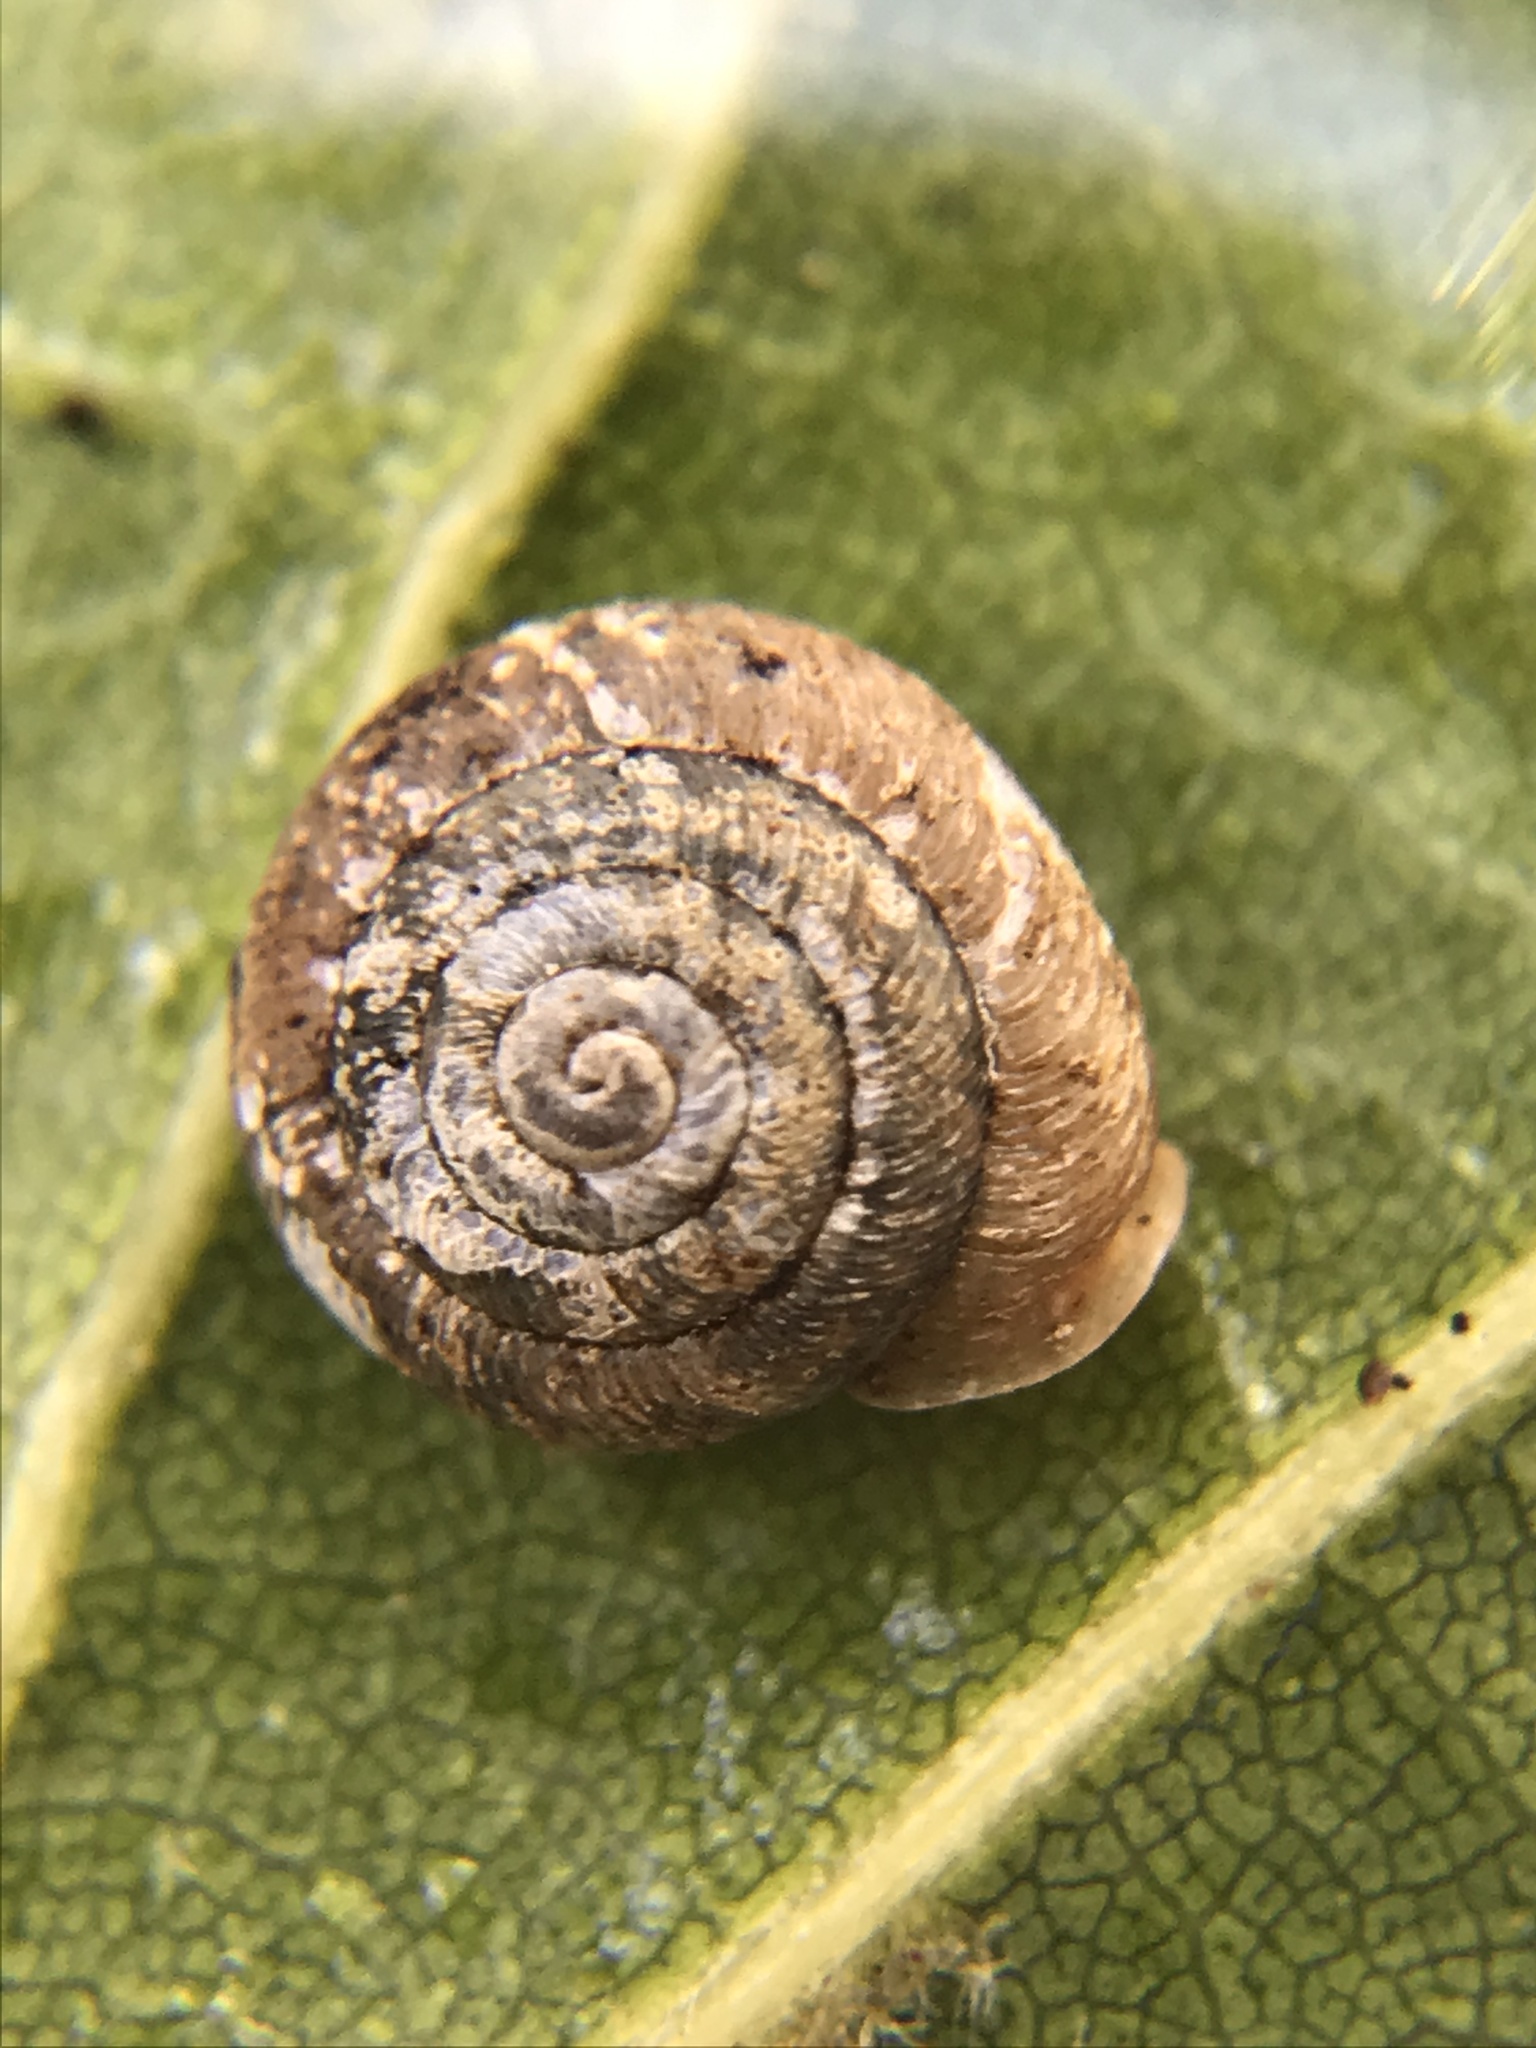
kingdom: Animalia
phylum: Mollusca
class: Gastropoda
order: Stylommatophora
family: Polygyridae
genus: Trilobopsis
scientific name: Trilobopsis loricata
